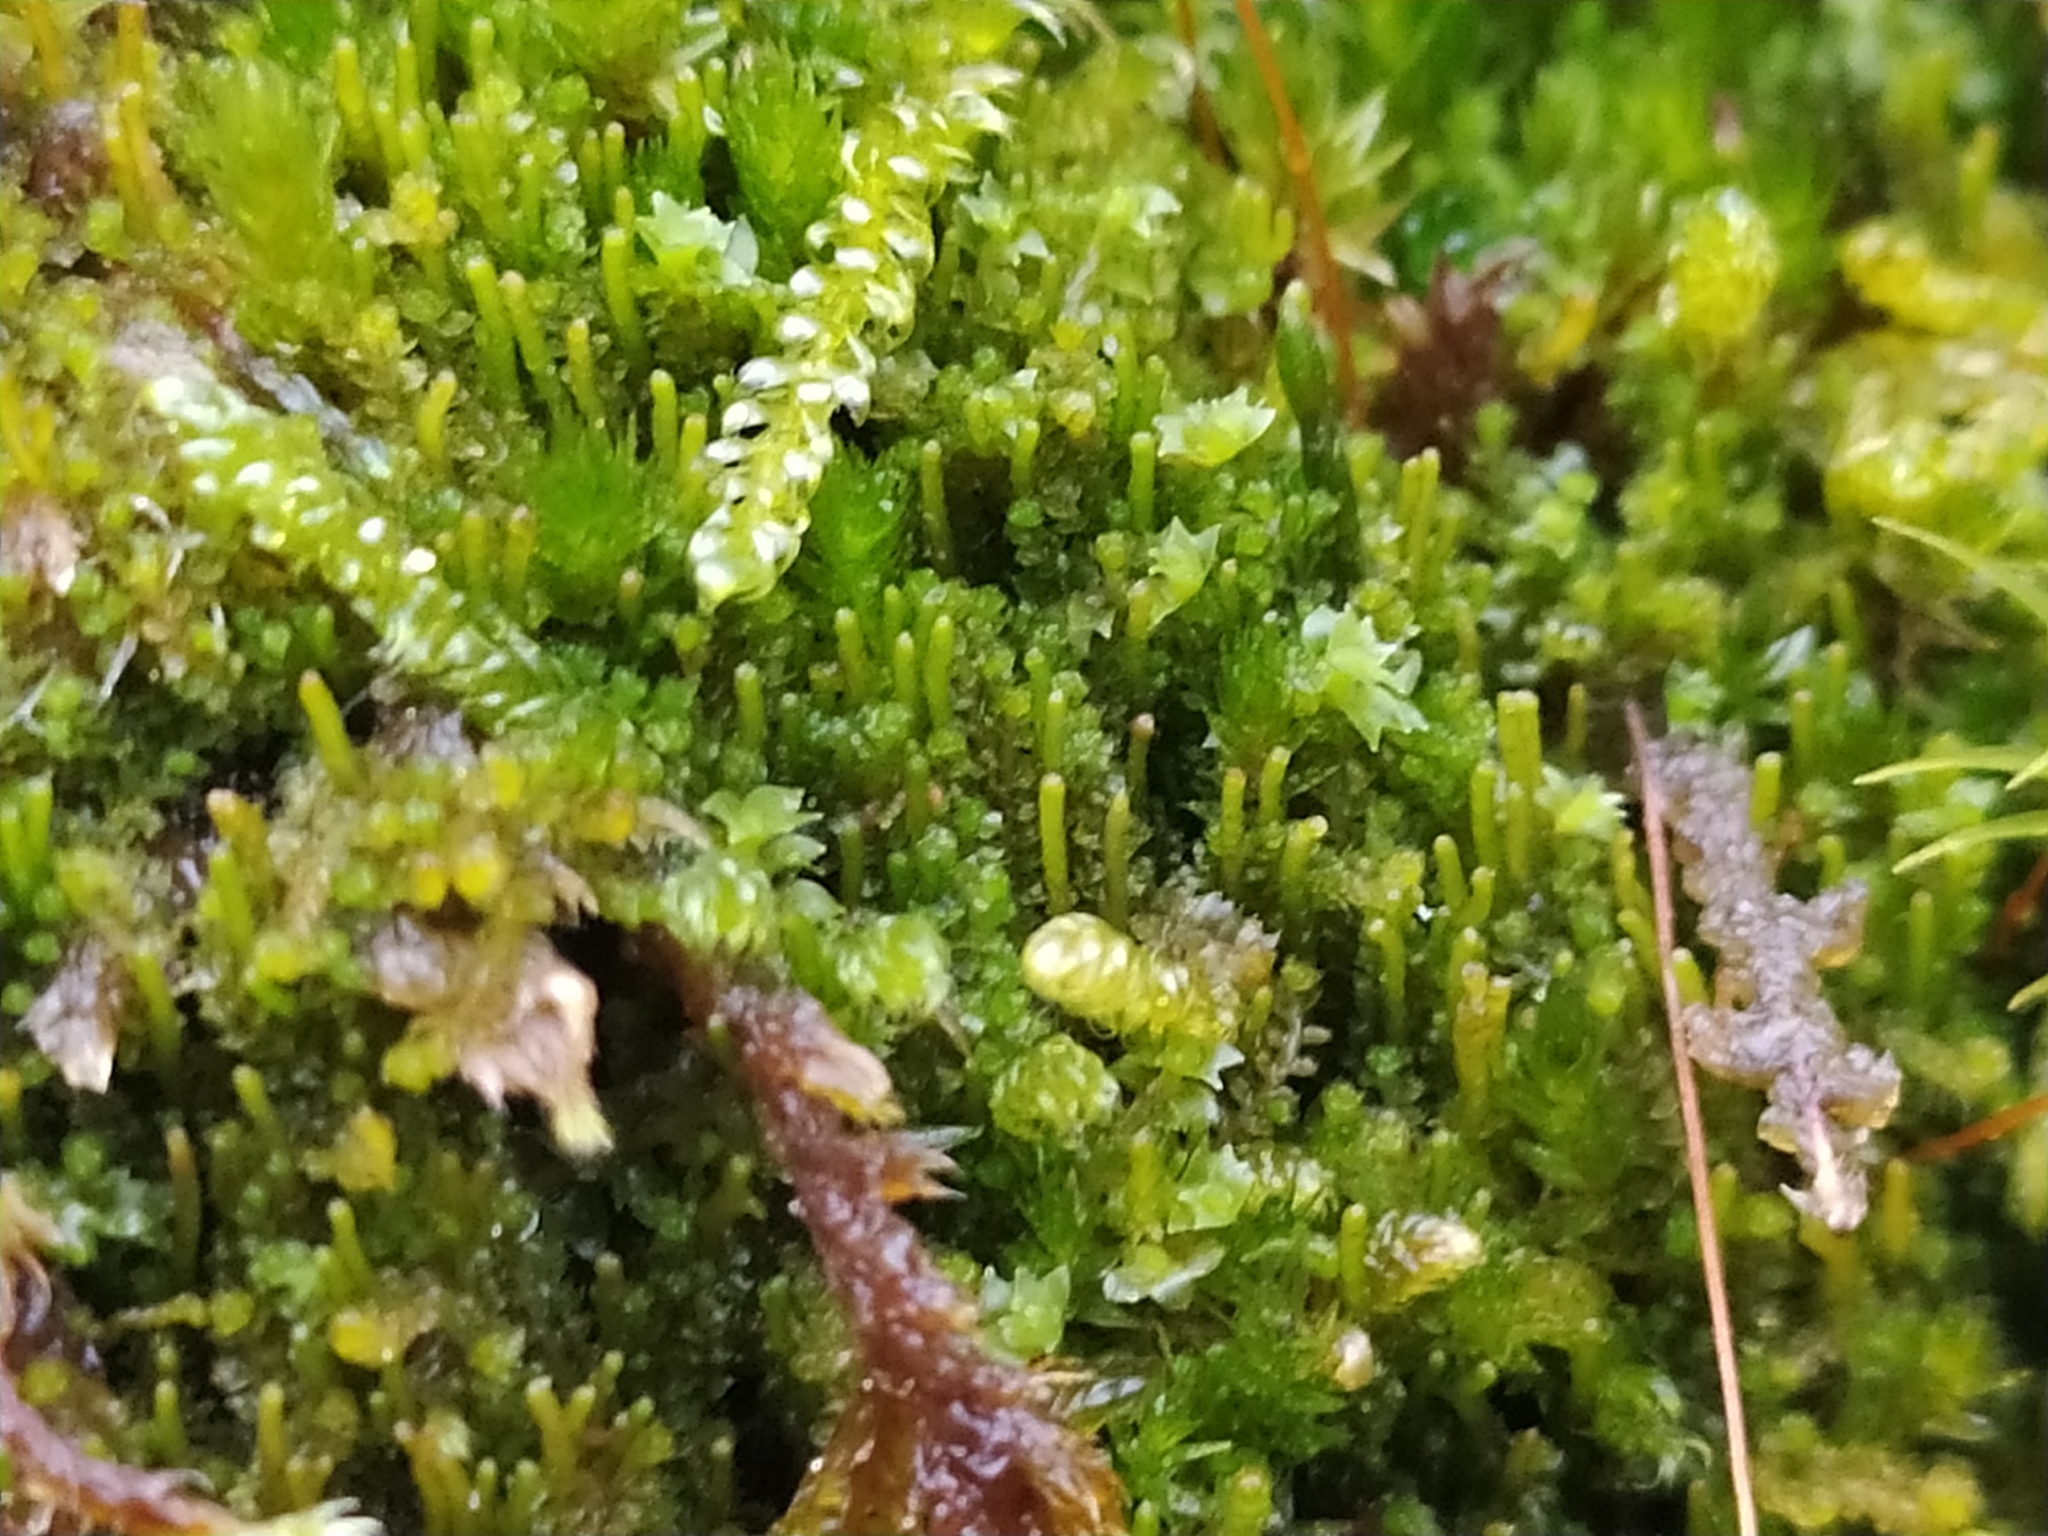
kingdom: Plantae
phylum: Marchantiophyta
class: Jungermanniopsida
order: Jungermanniales
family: Anastrophyllaceae
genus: Neoorthocaulis
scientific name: Neoorthocaulis attenuatus
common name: Trunk pawwort
